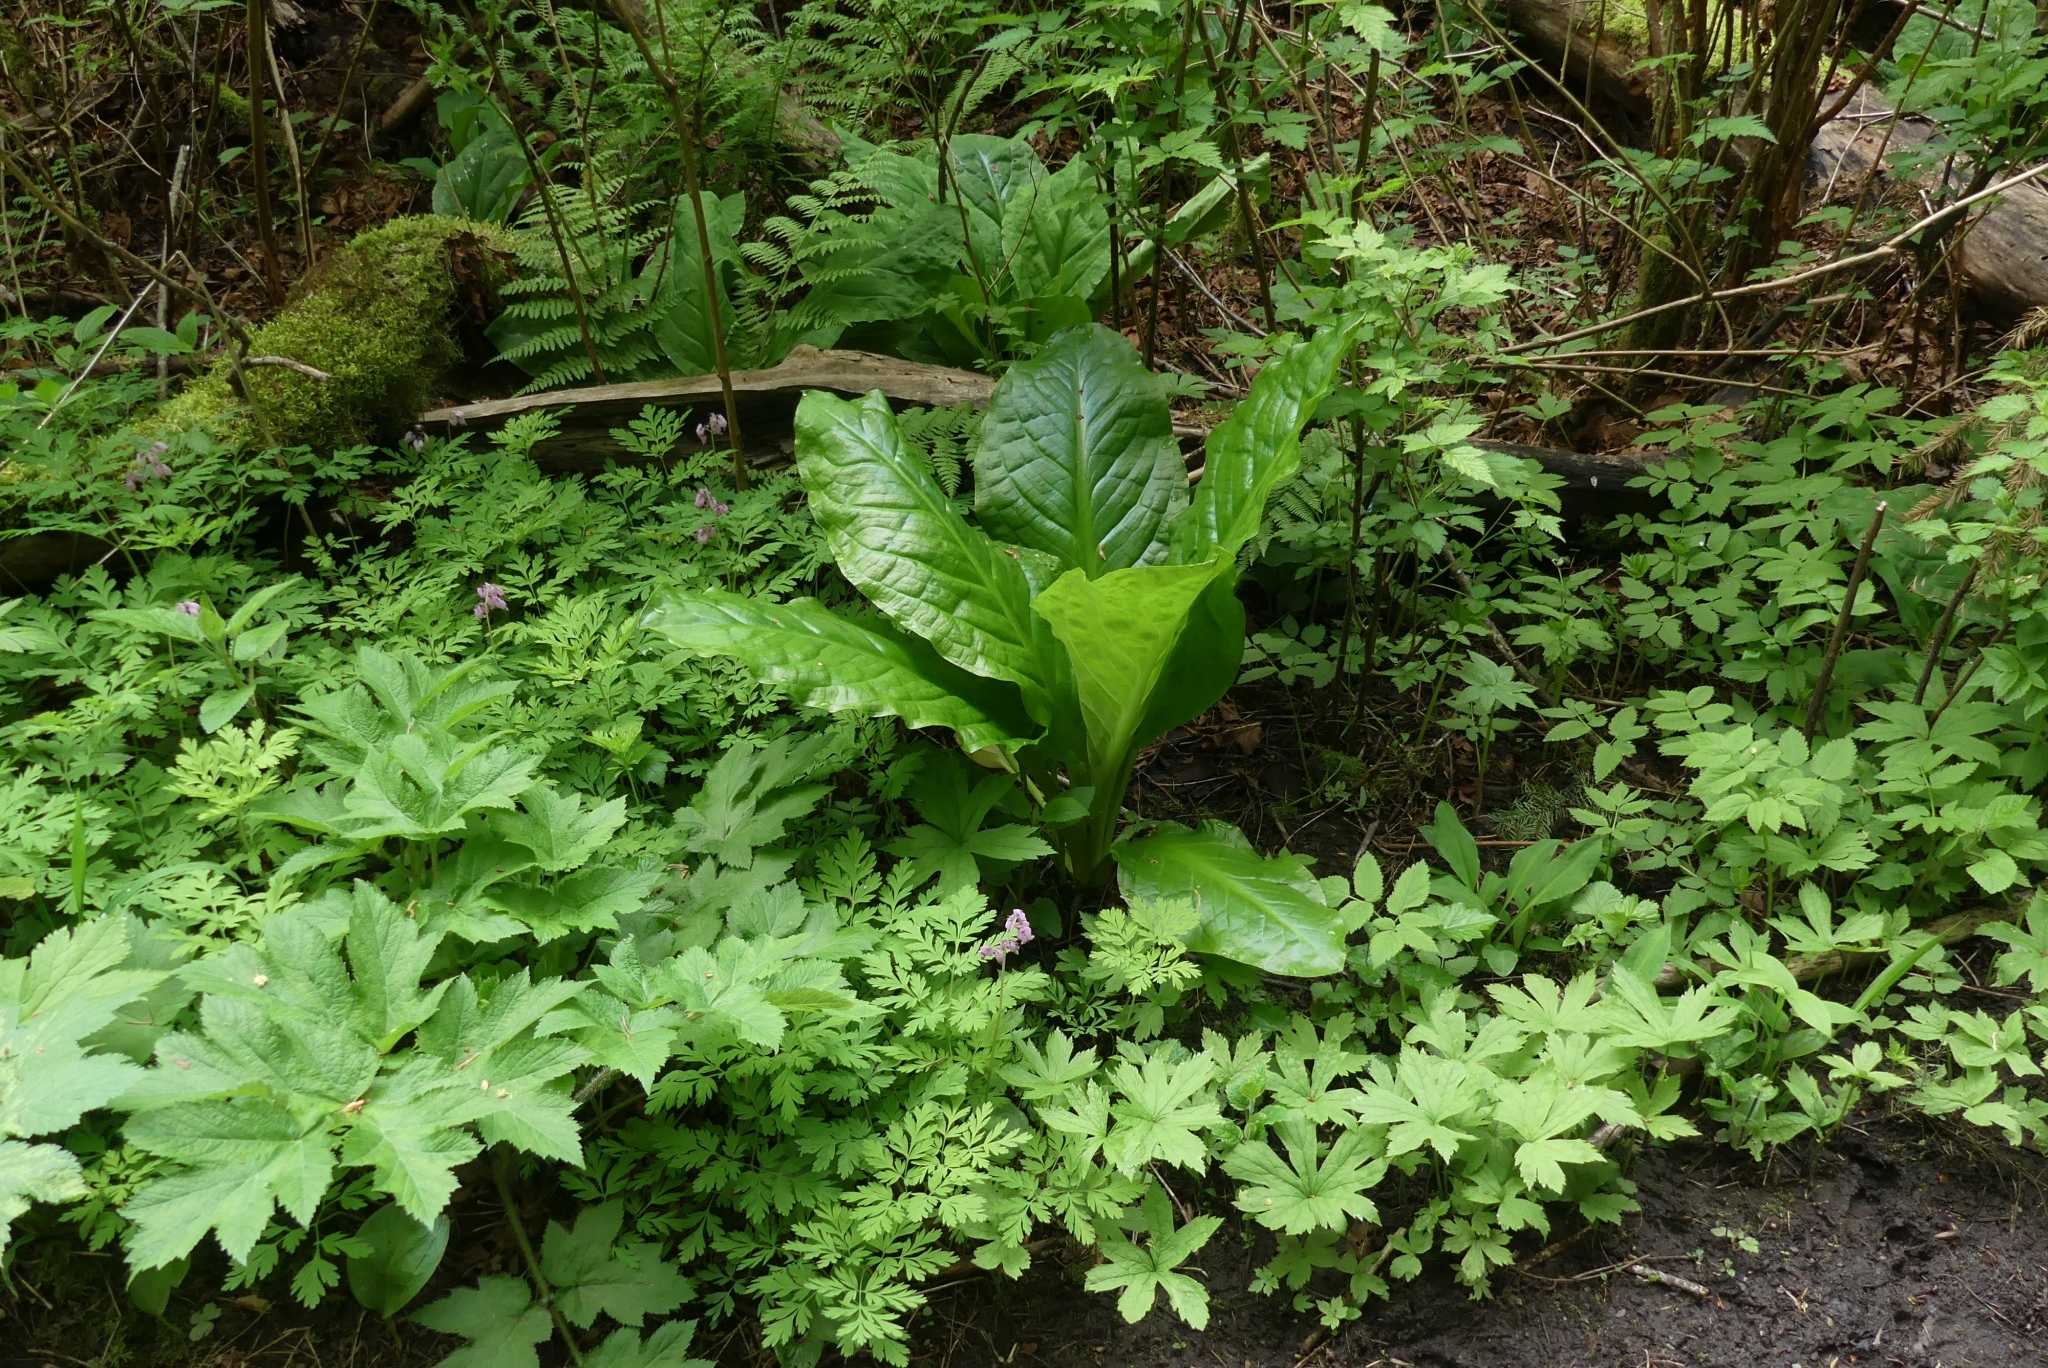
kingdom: Plantae
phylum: Tracheophyta
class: Liliopsida
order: Alismatales
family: Araceae
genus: Lysichiton
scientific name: Lysichiton americanus
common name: American skunk cabbage
